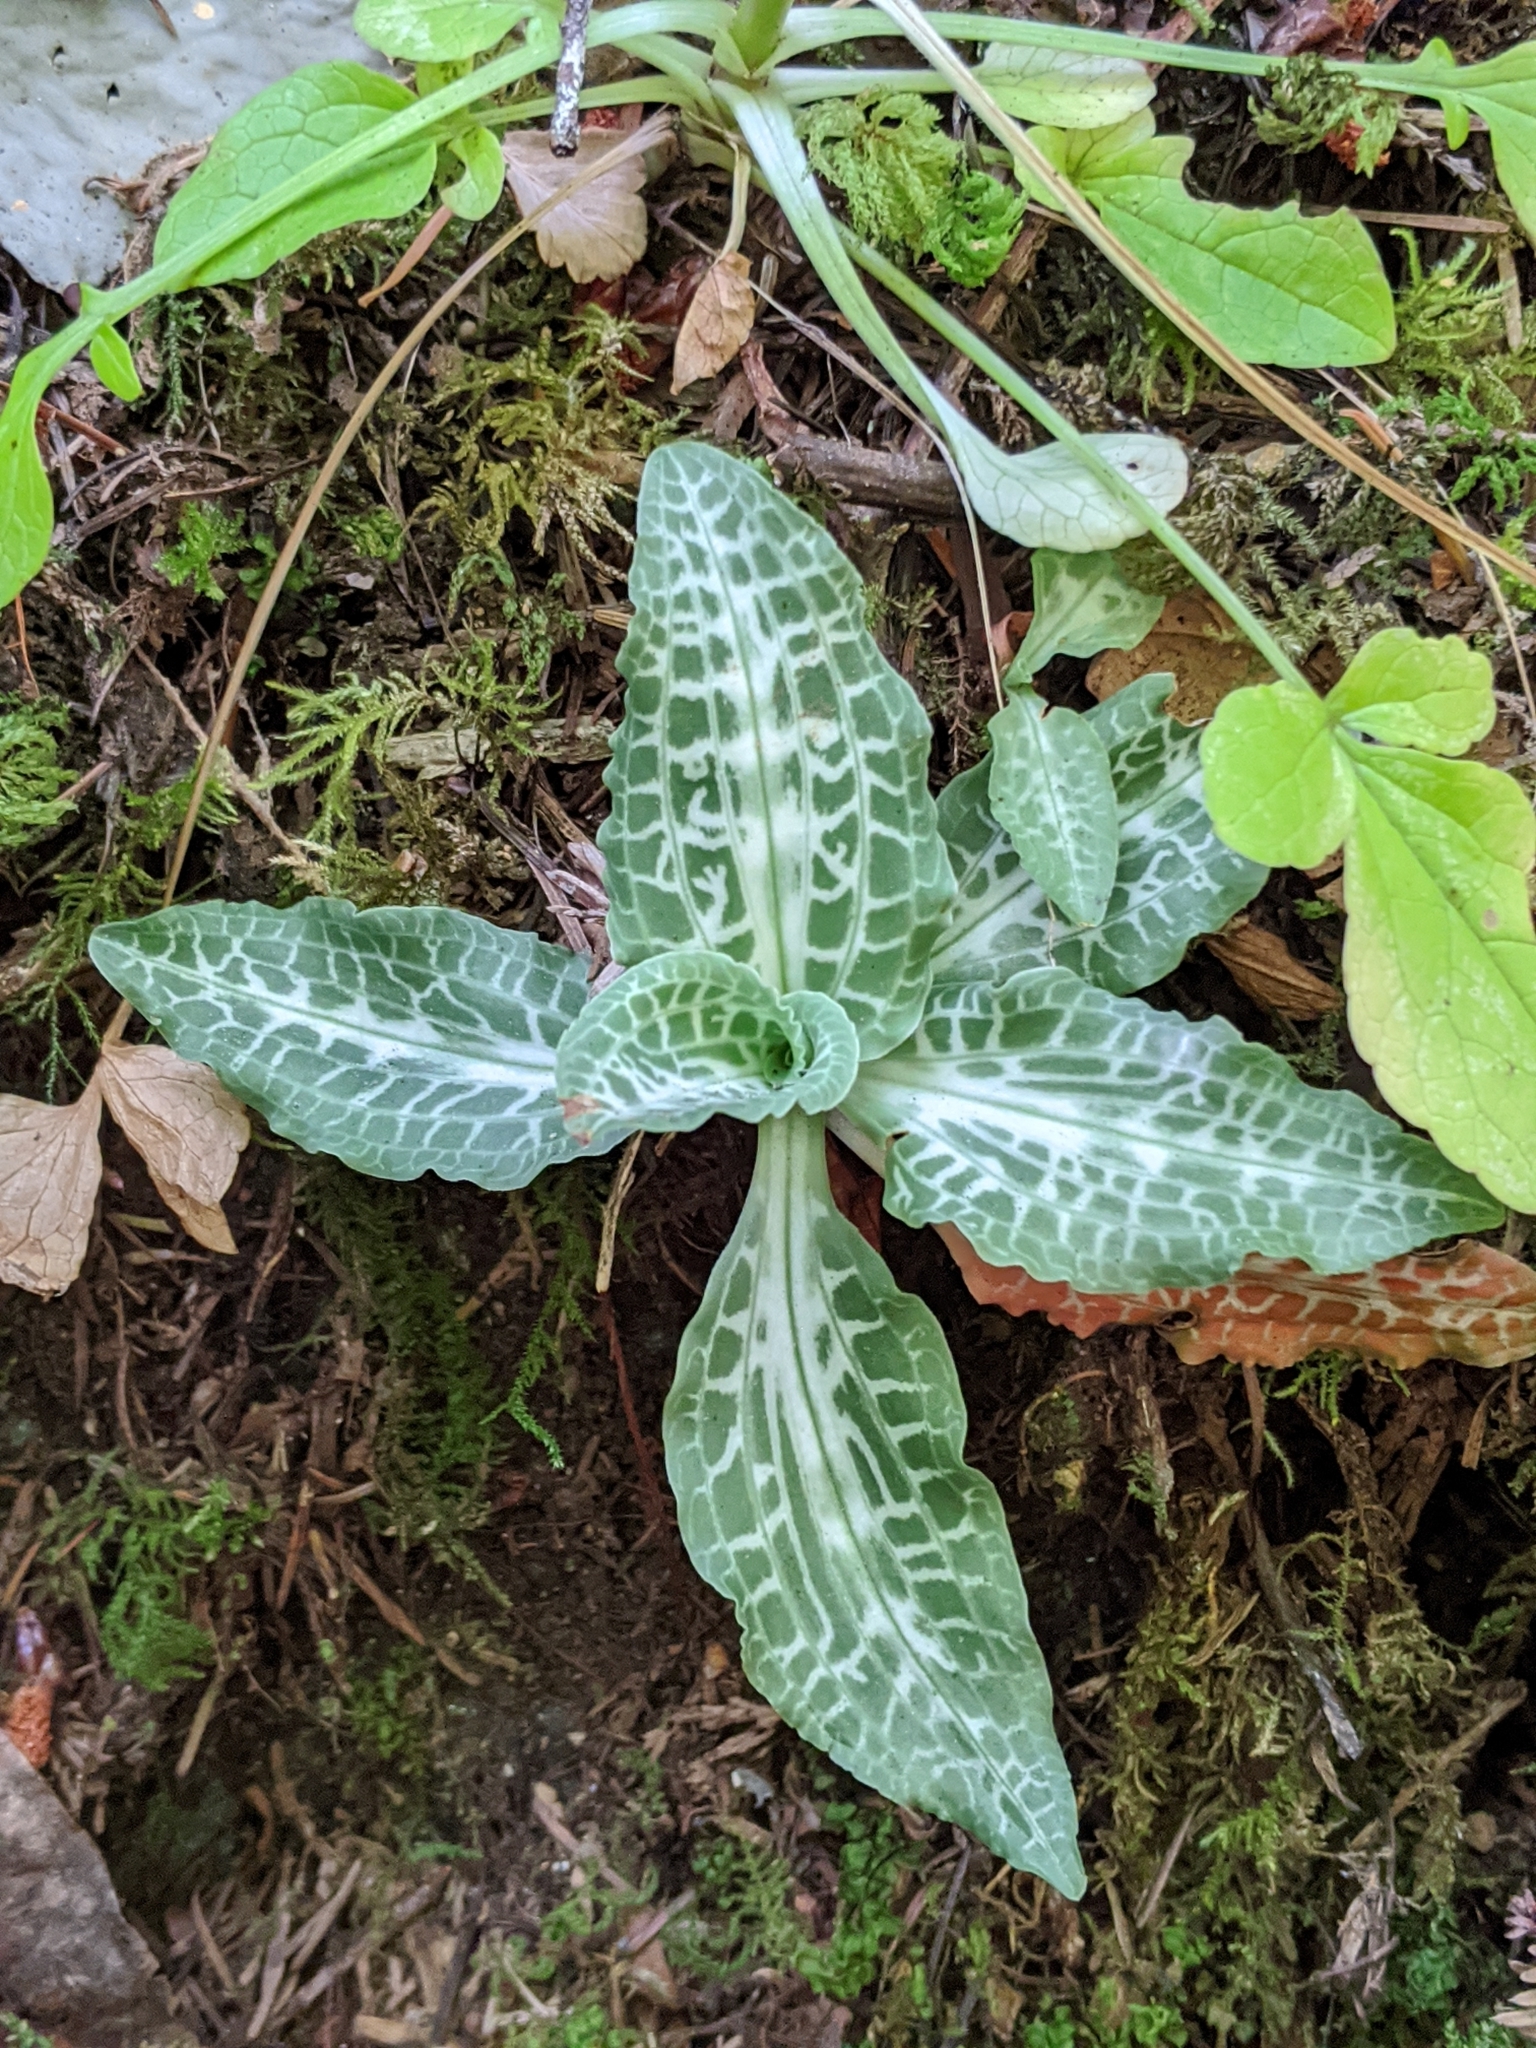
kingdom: Plantae
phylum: Tracheophyta
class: Liliopsida
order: Asparagales
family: Orchidaceae
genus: Goodyera
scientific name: Goodyera oblongifolia
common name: Giant rattlesnake-plantain
